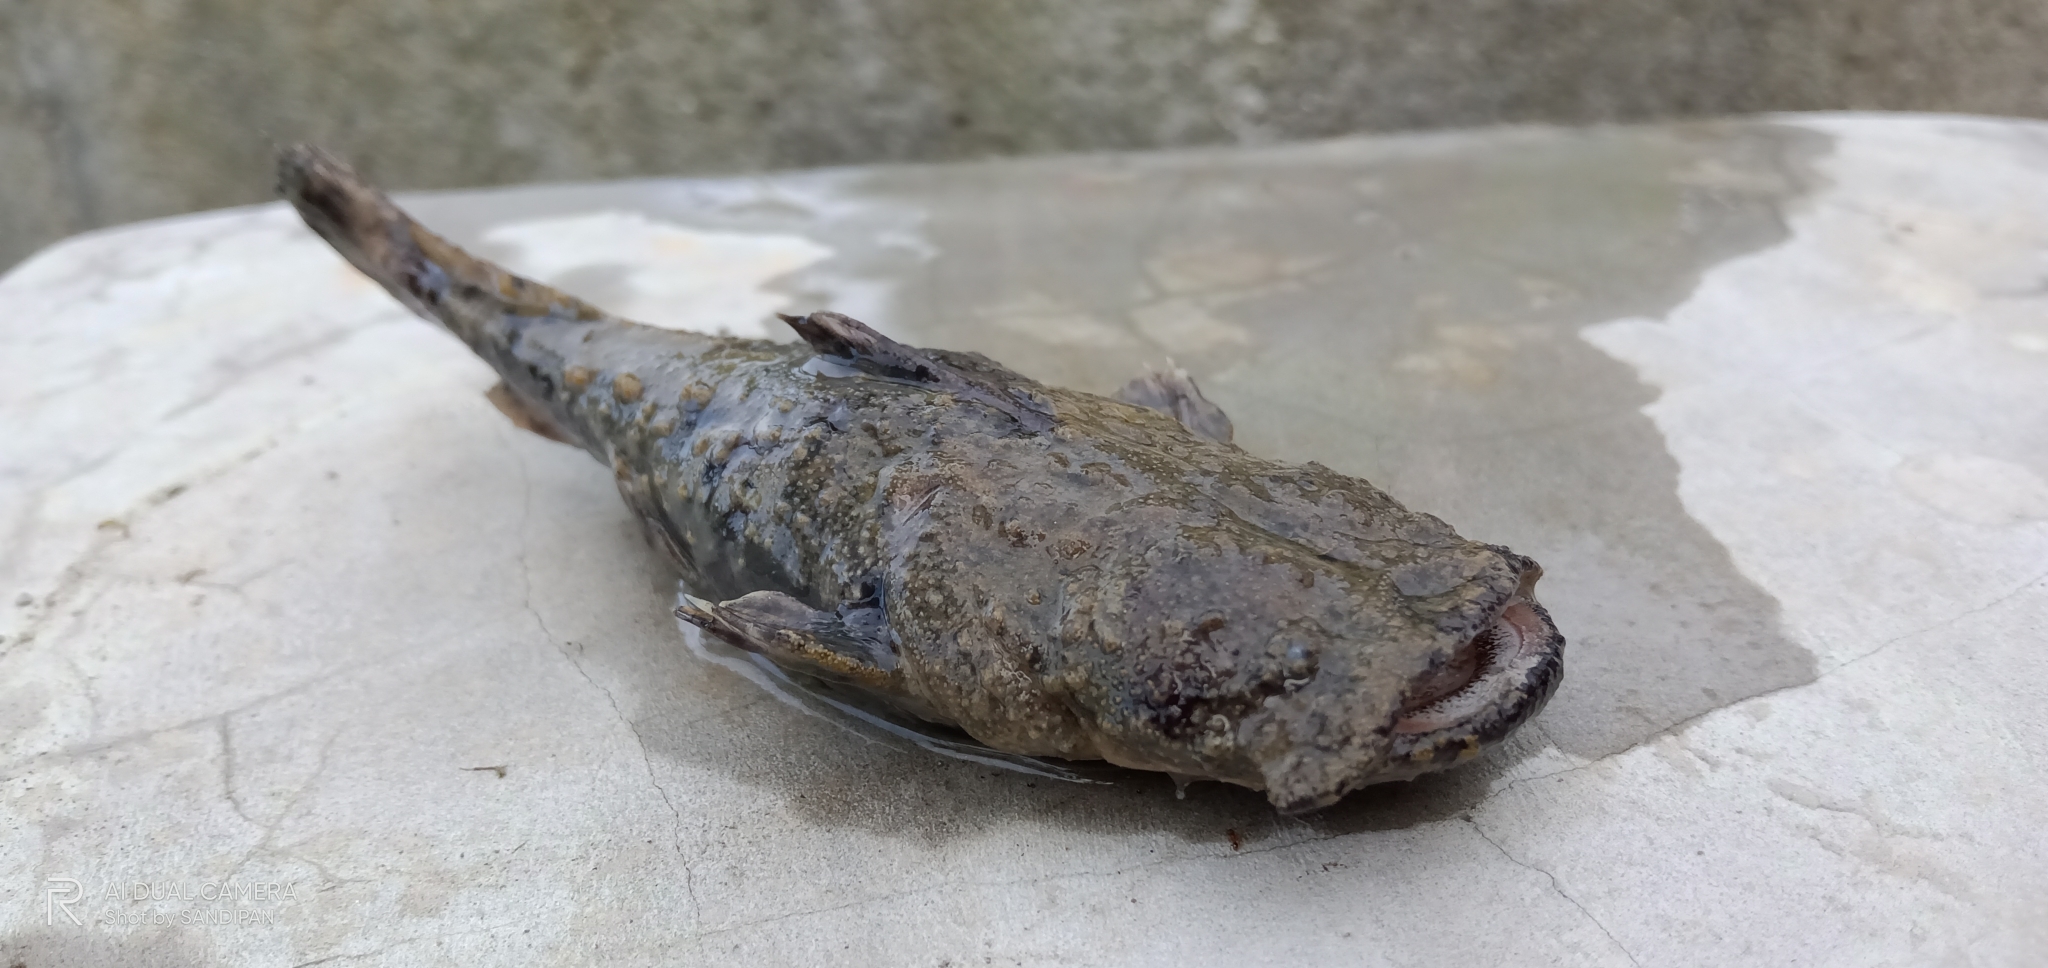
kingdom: Animalia
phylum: Chordata
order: Siluriformes
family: Chacidae
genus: Chaca
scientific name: Chaca chaca
